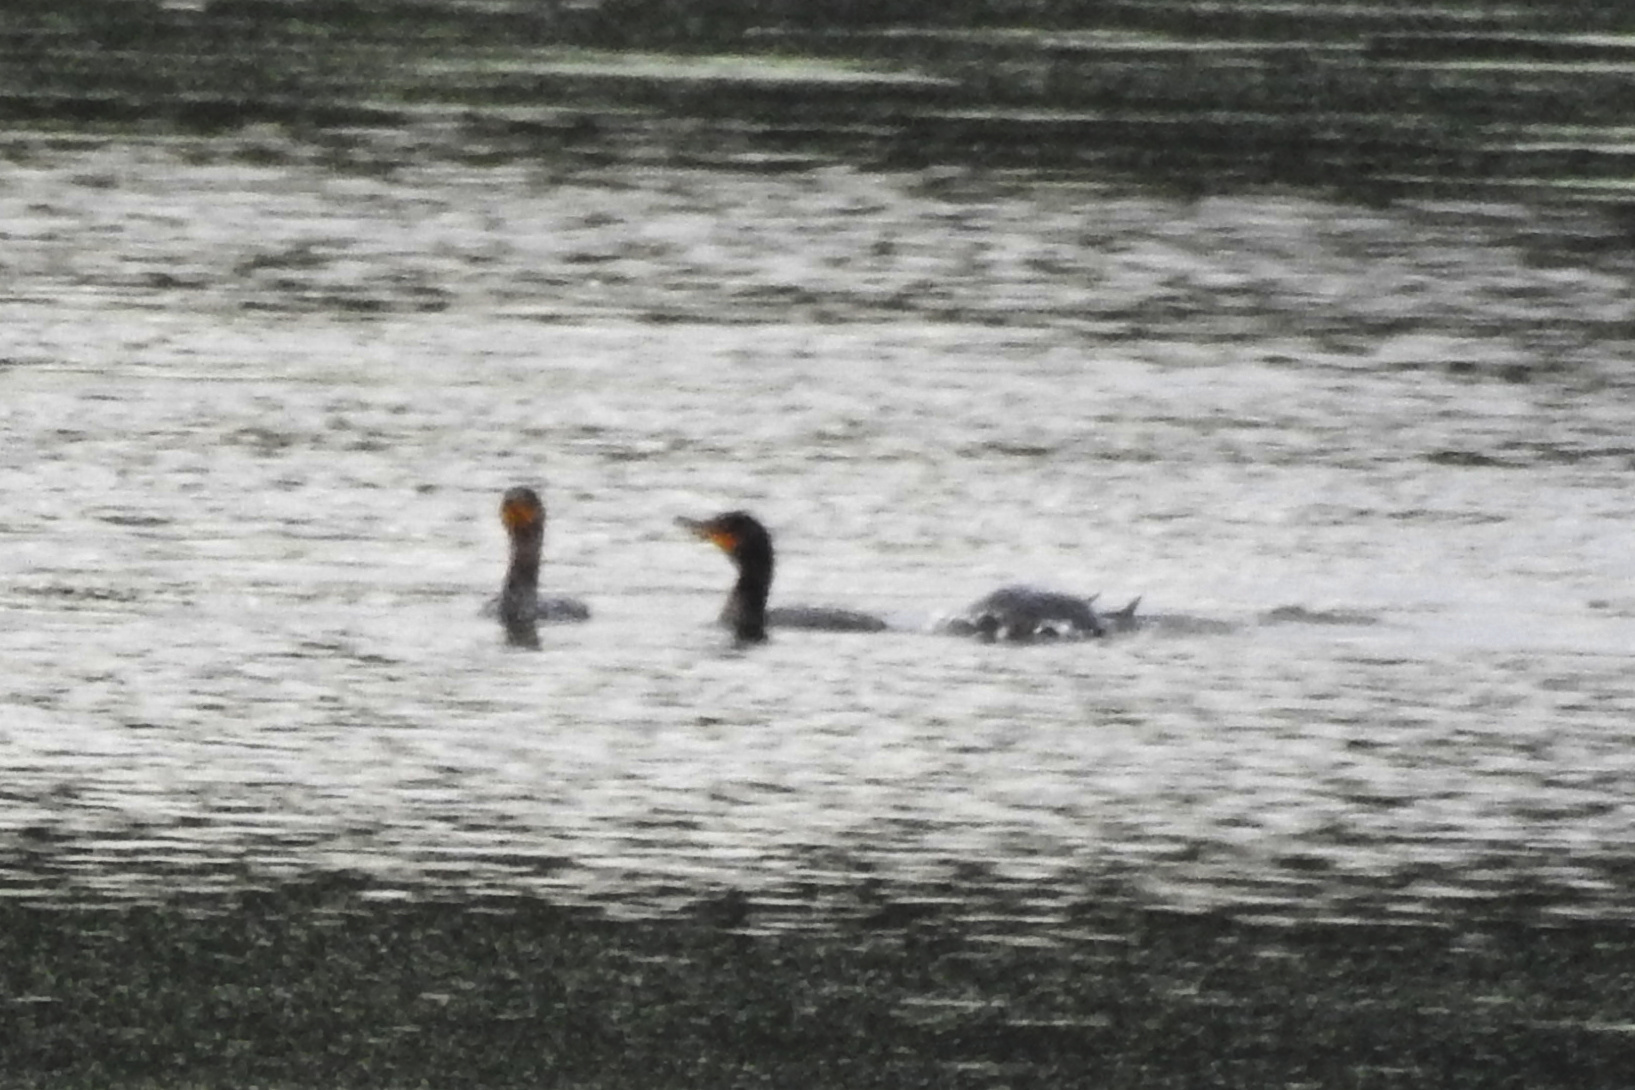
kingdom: Animalia
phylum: Chordata
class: Aves
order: Suliformes
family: Phalacrocoracidae
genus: Phalacrocorax
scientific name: Phalacrocorax auritus
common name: Double-crested cormorant
